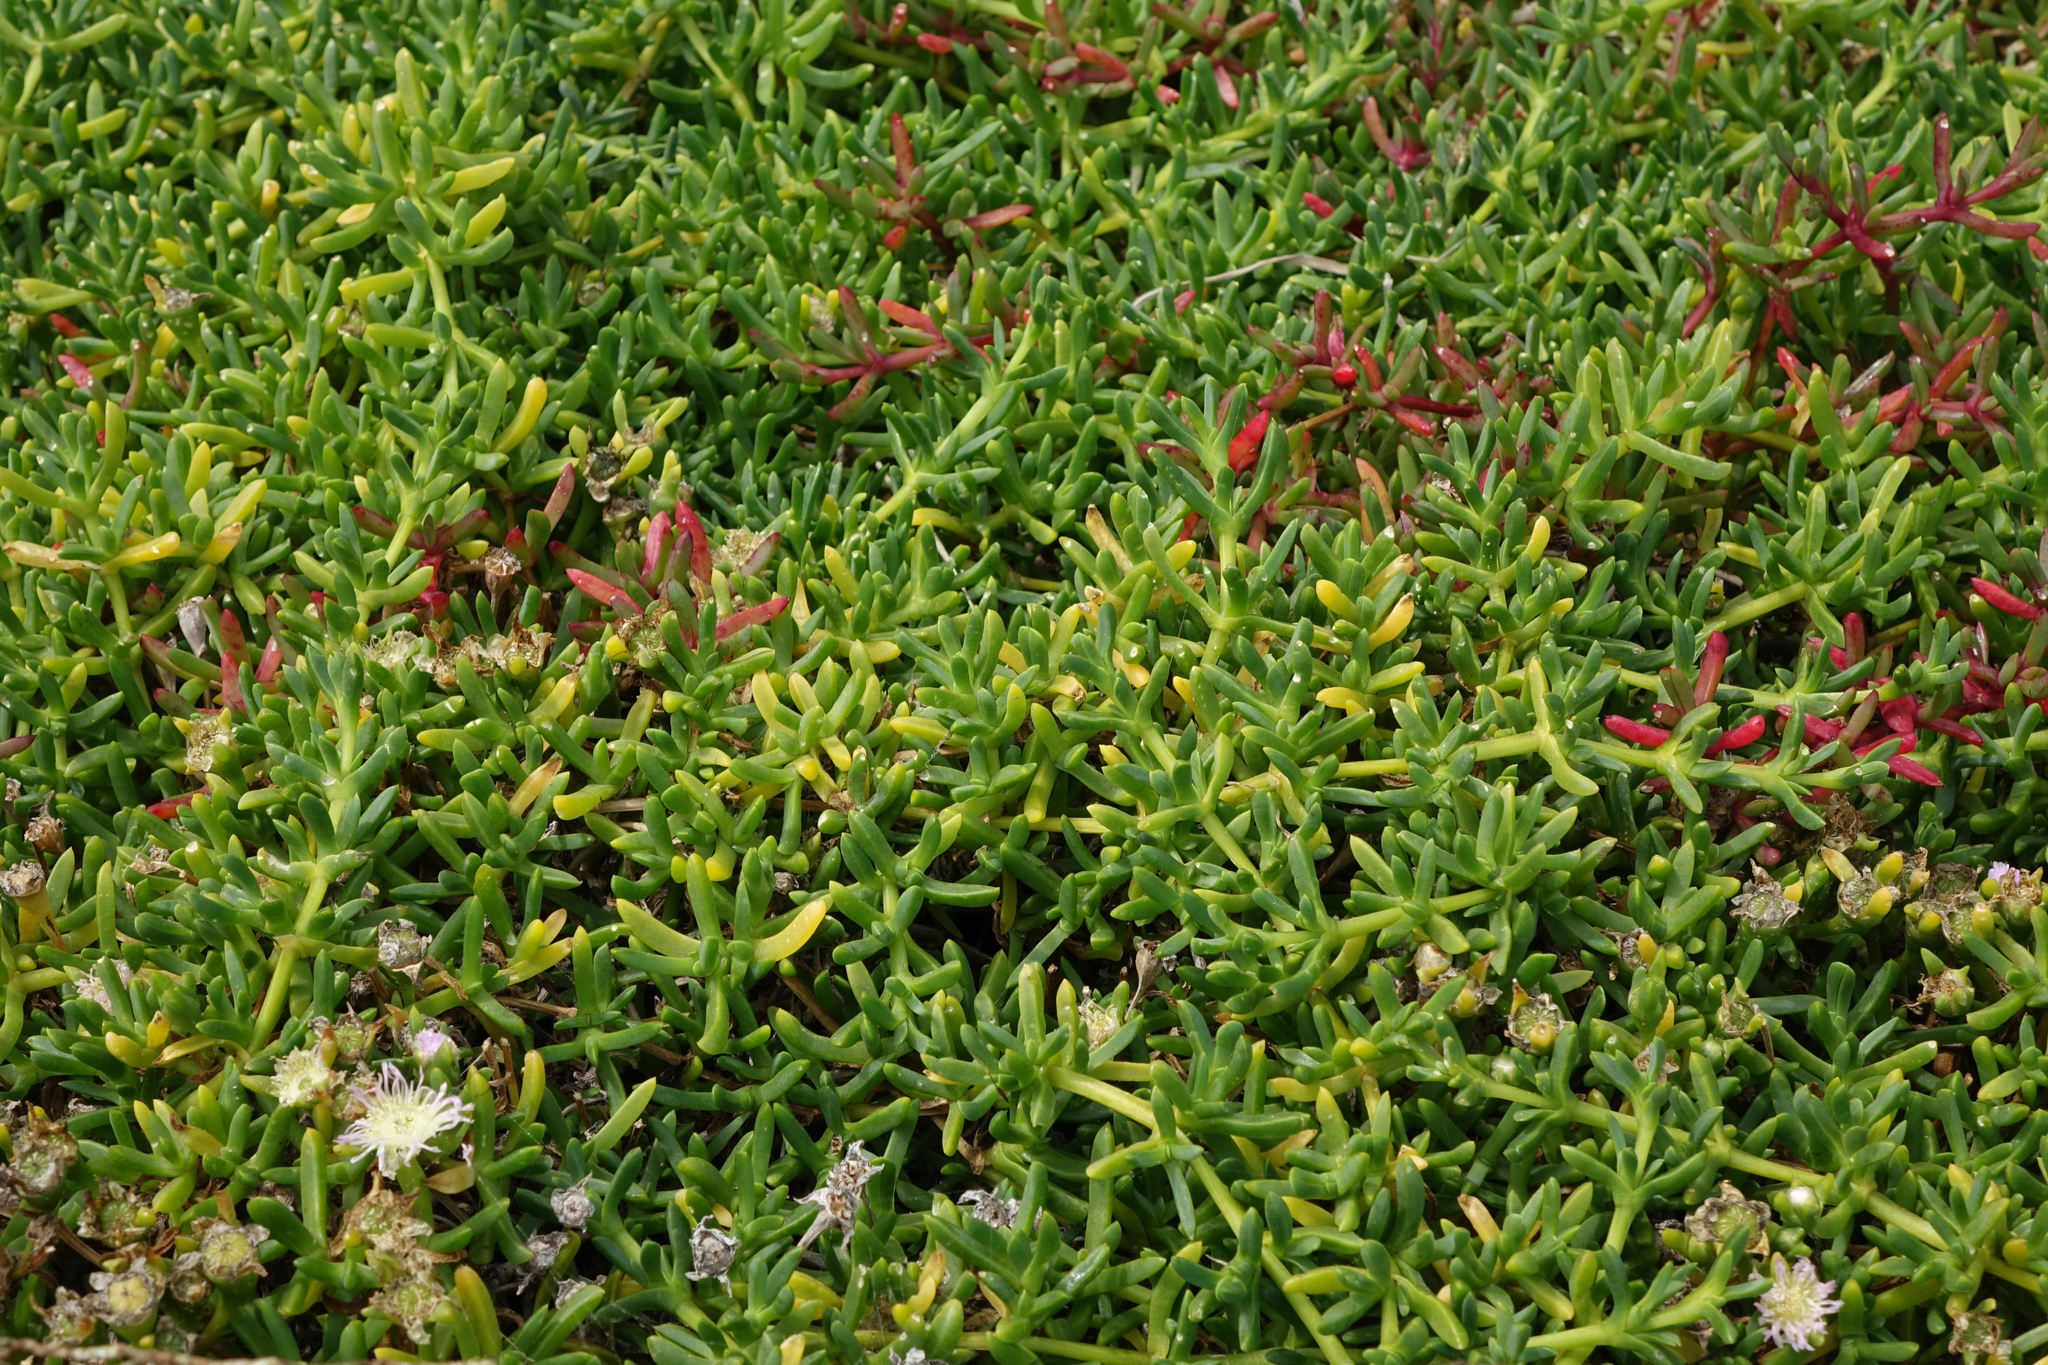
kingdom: Plantae
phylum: Tracheophyta
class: Magnoliopsida
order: Caryophyllales
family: Aizoaceae
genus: Disphyma
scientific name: Disphyma australe
